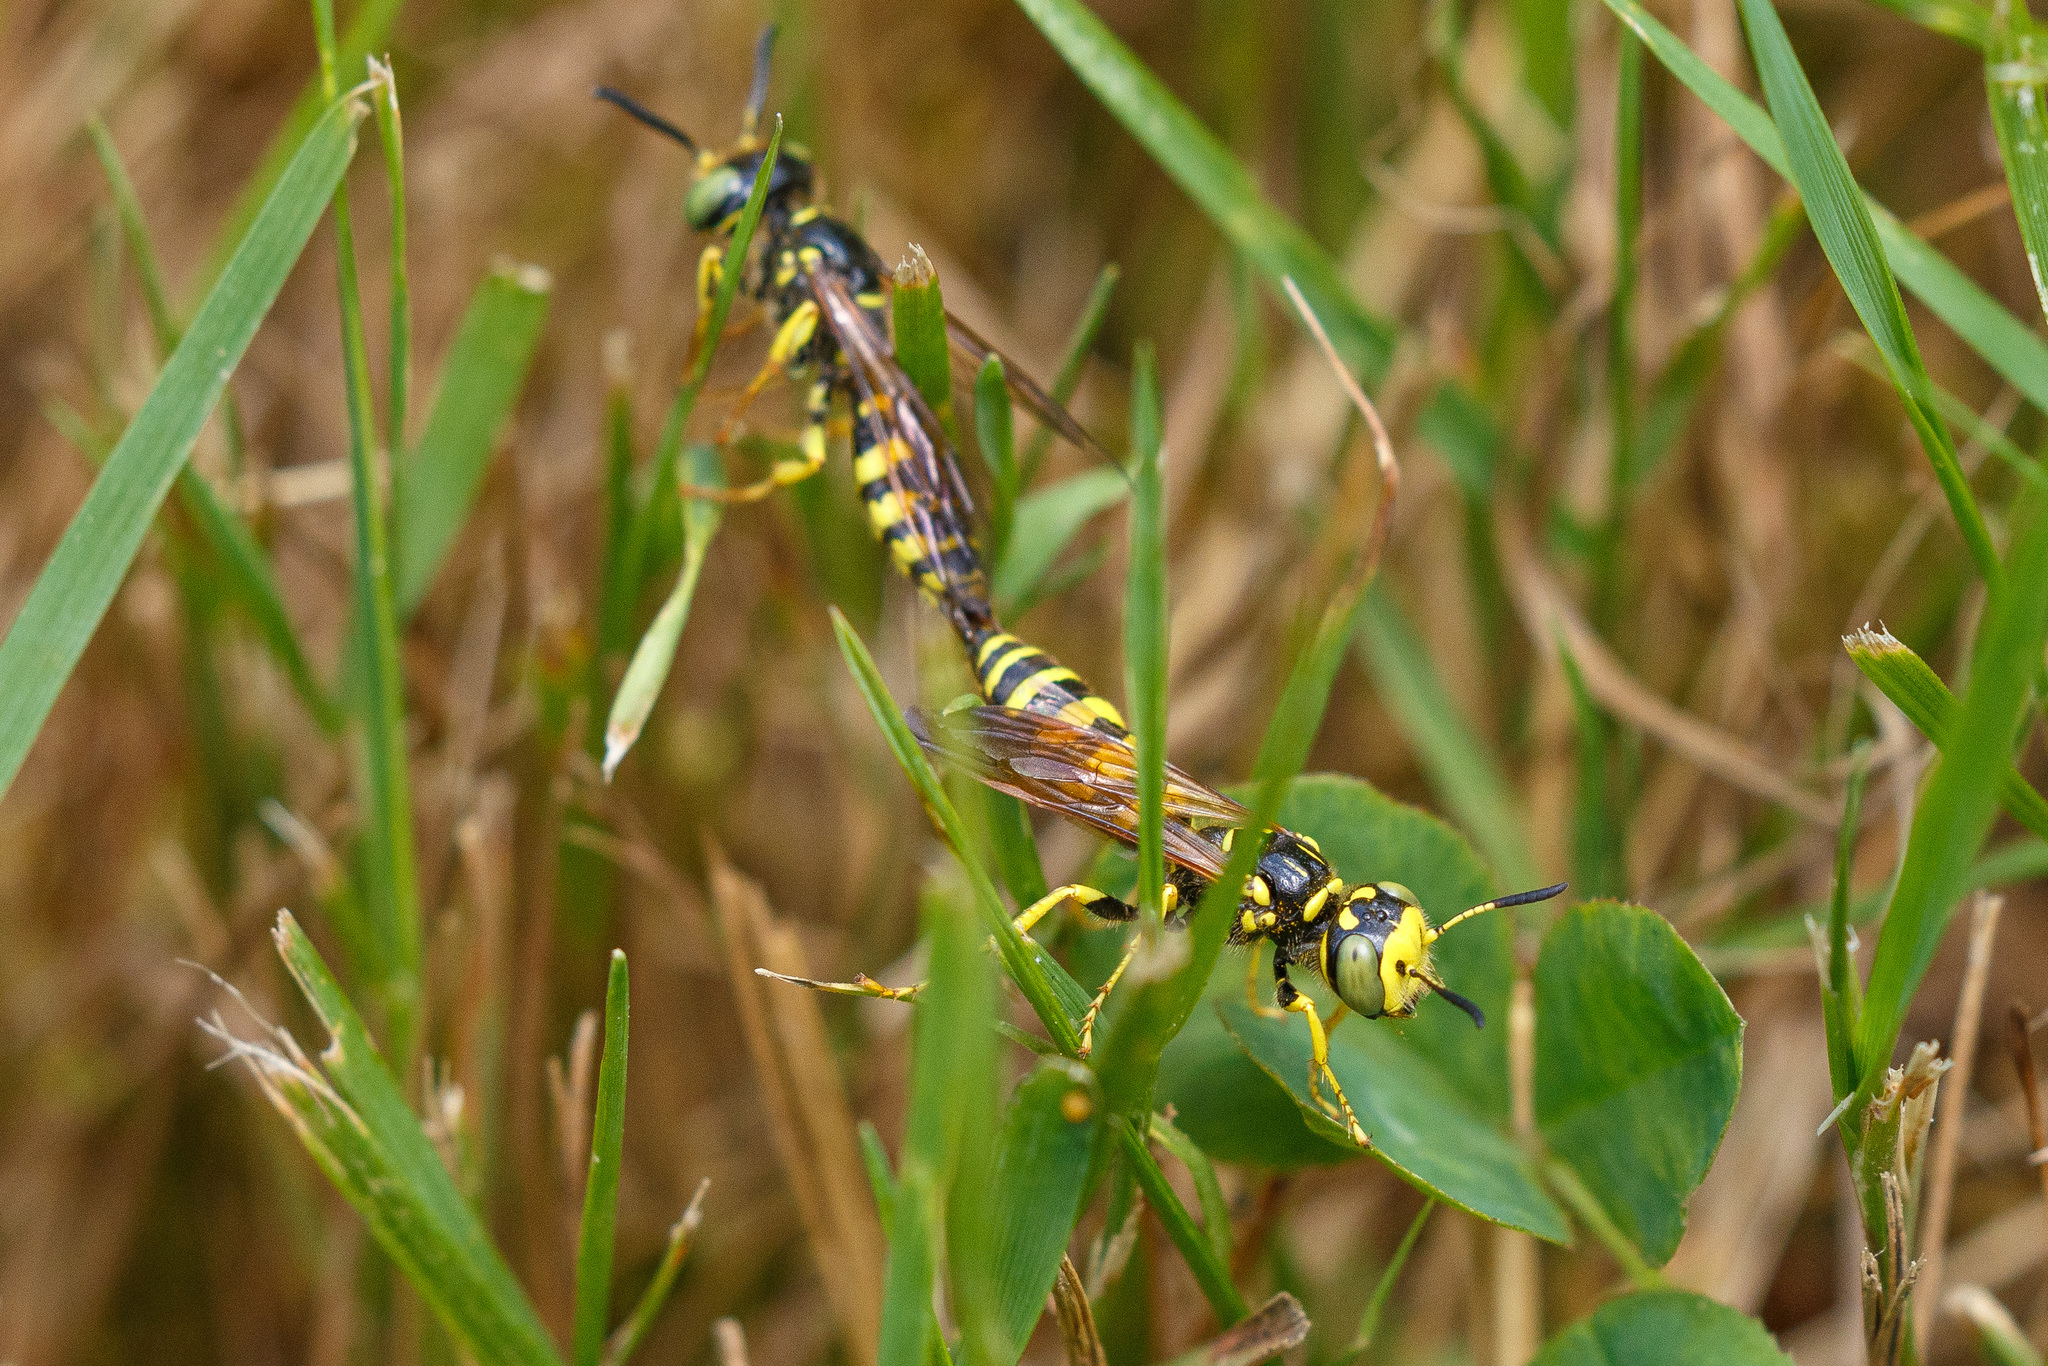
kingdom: Animalia
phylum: Arthropoda
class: Insecta
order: Hymenoptera
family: Crabronidae
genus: Philanthus
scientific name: Philanthus crabroniformis
